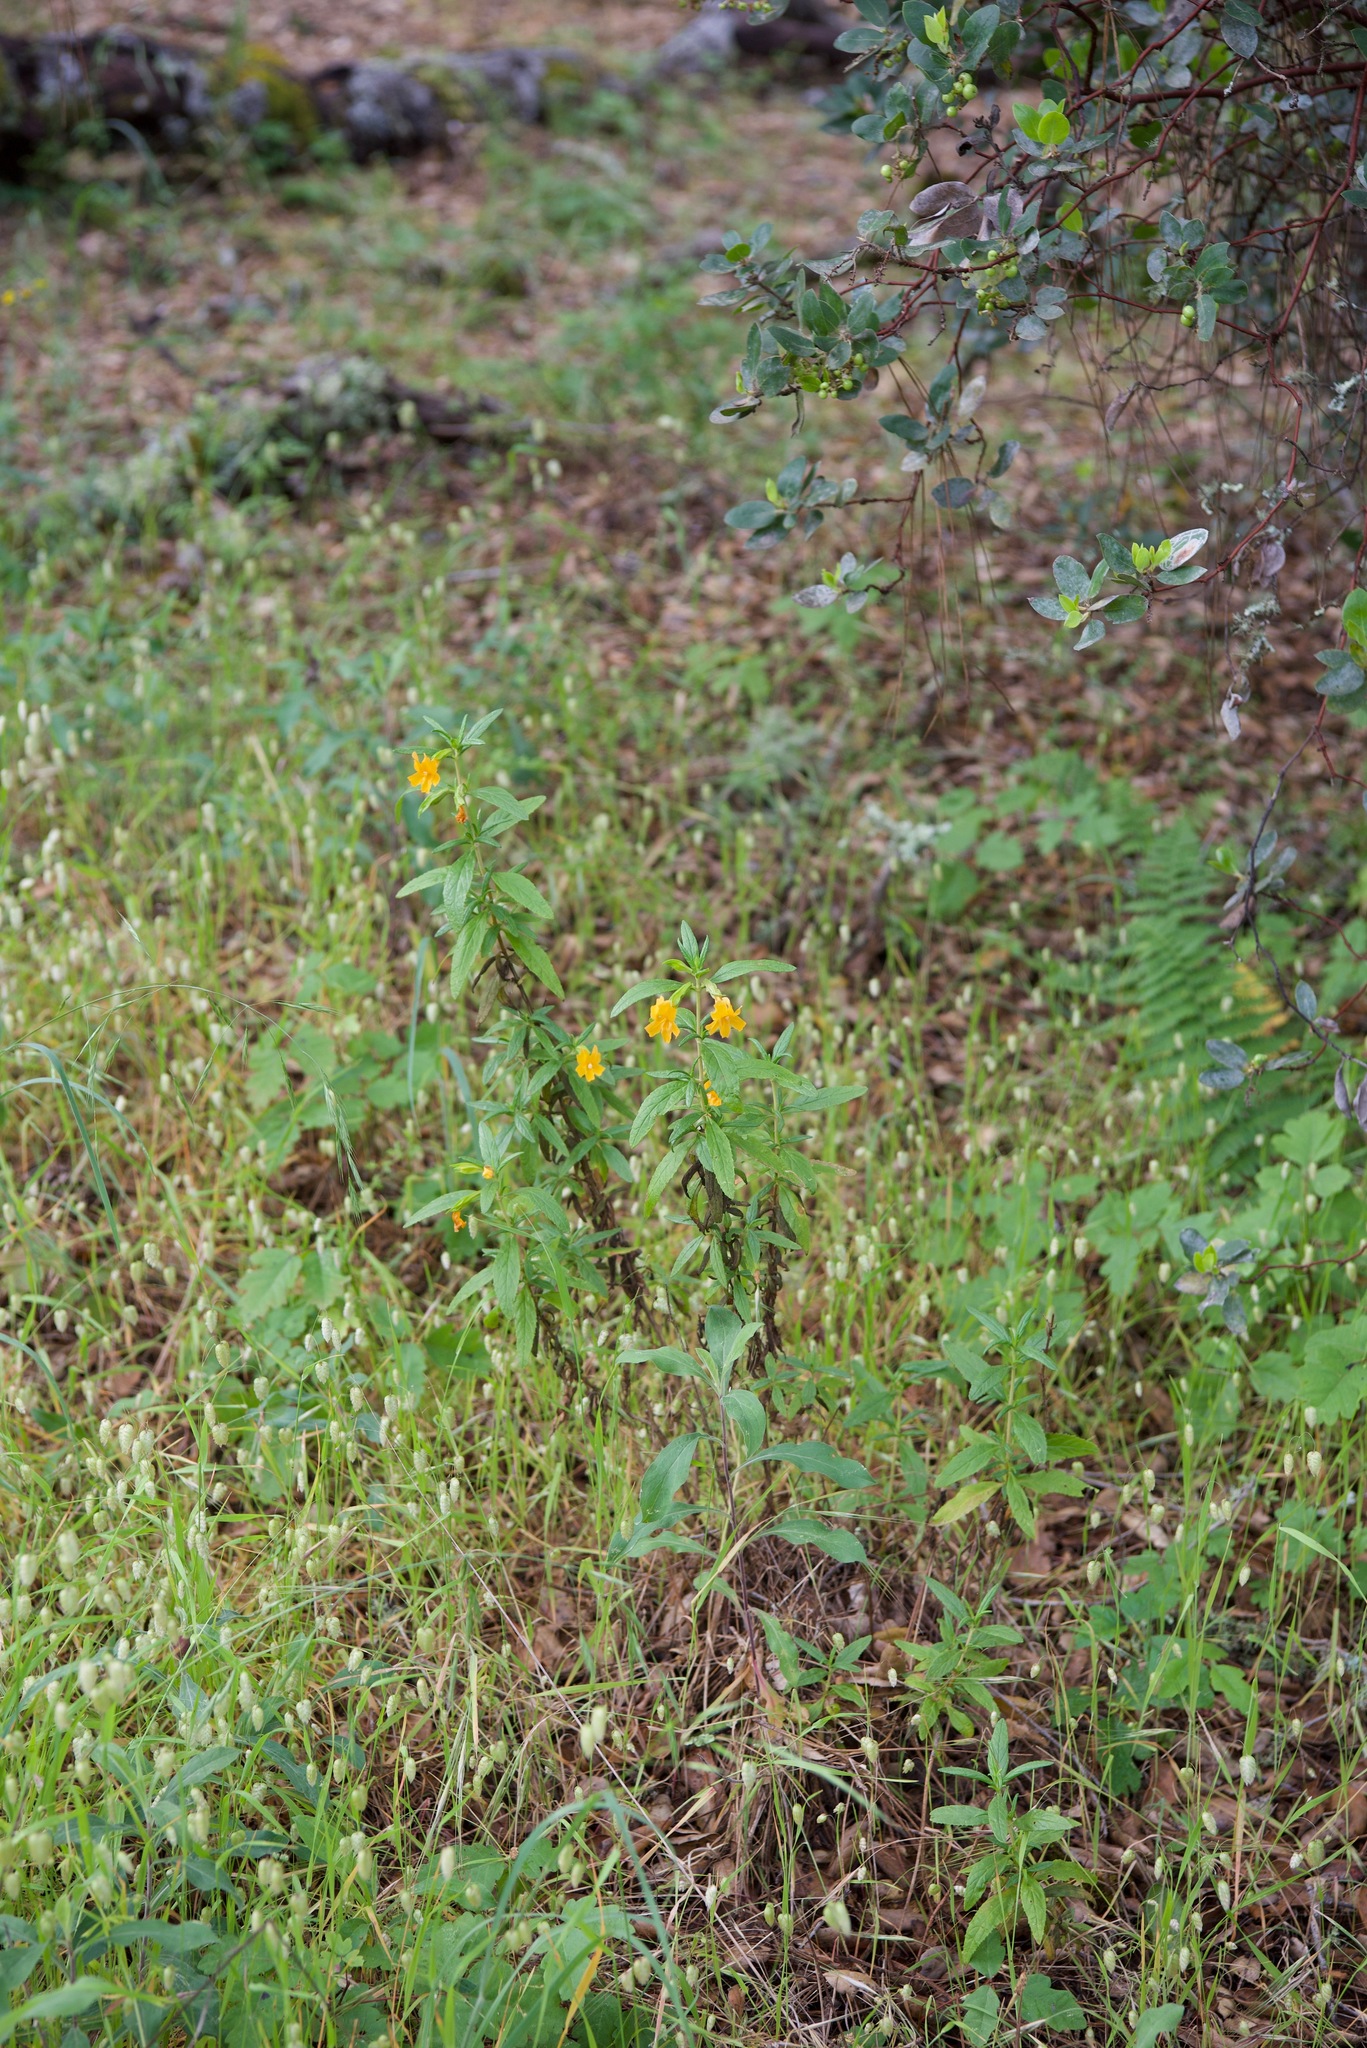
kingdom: Plantae
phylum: Tracheophyta
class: Magnoliopsida
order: Lamiales
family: Phrymaceae
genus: Diplacus
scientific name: Diplacus aurantiacus
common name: Bush monkey-flower
